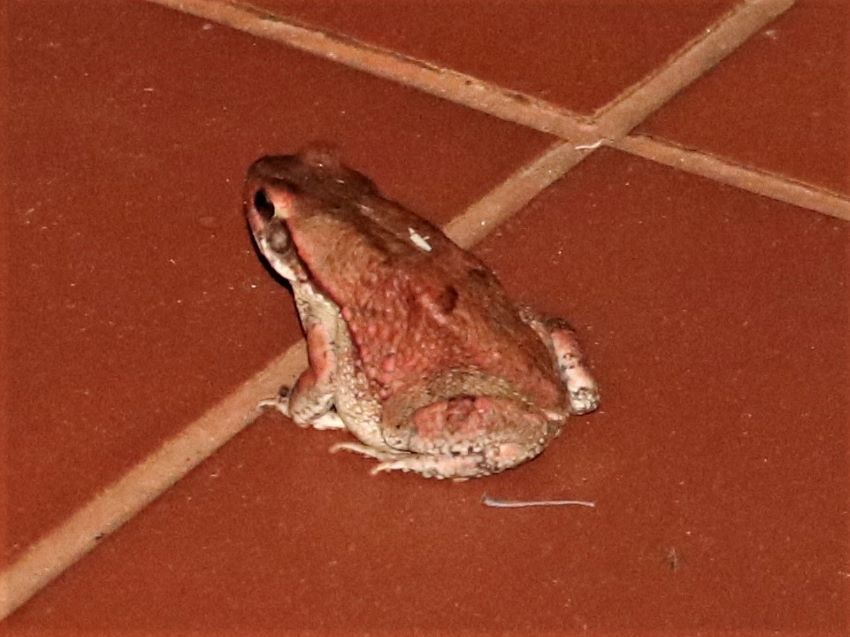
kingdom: Animalia
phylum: Chordata
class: Amphibia
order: Anura
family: Bufonidae
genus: Schismaderma
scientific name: Schismaderma carens
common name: African split-skin toad
